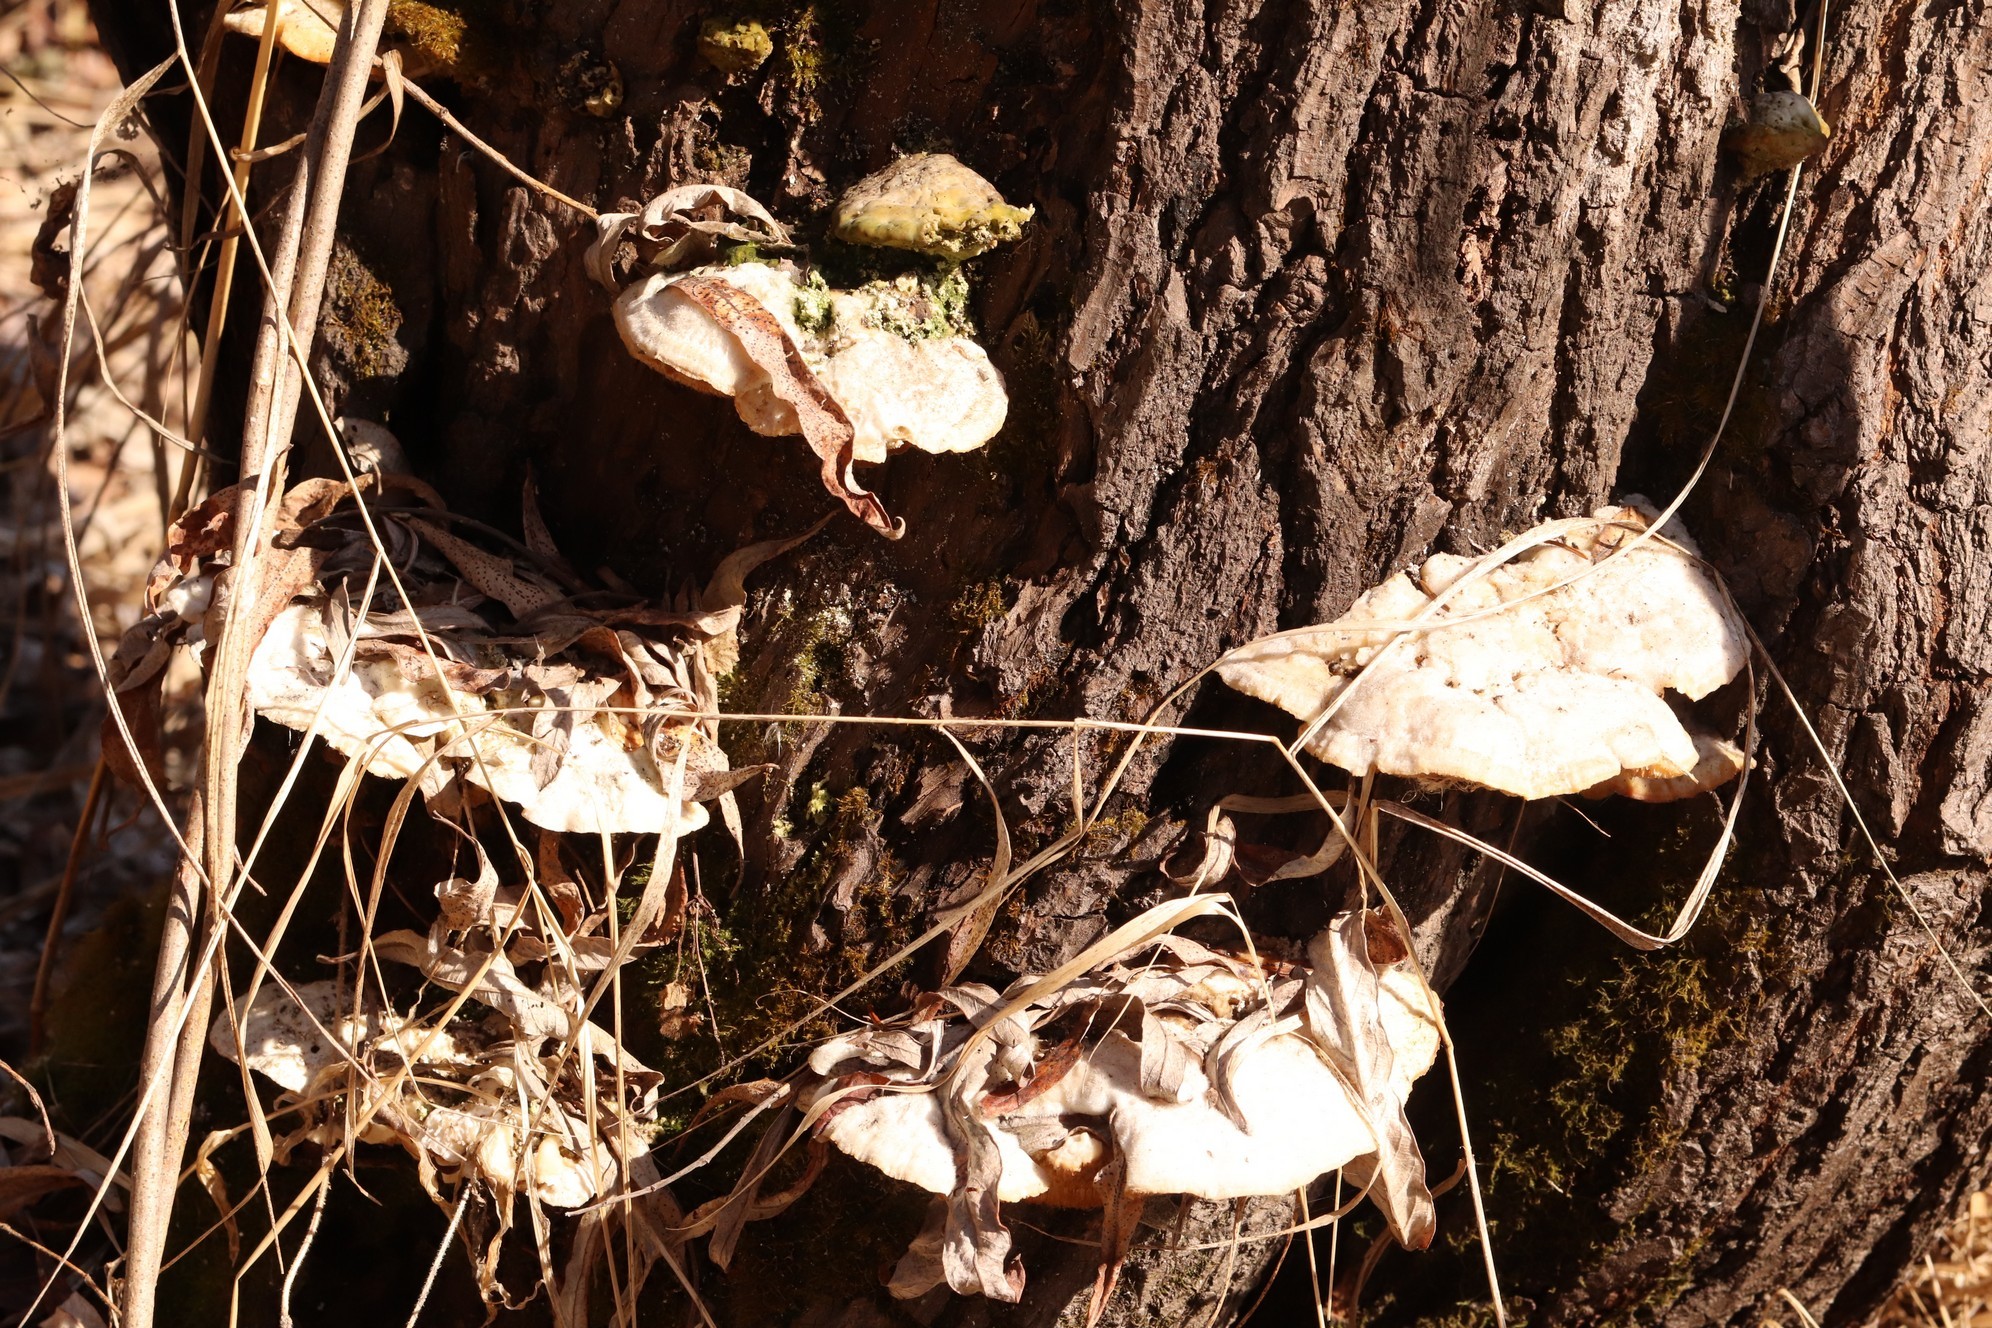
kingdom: Fungi
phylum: Basidiomycota
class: Agaricomycetes
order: Polyporales
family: Polyporaceae
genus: Trametes
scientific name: Trametes suaveolens
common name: Fragrant bracket
